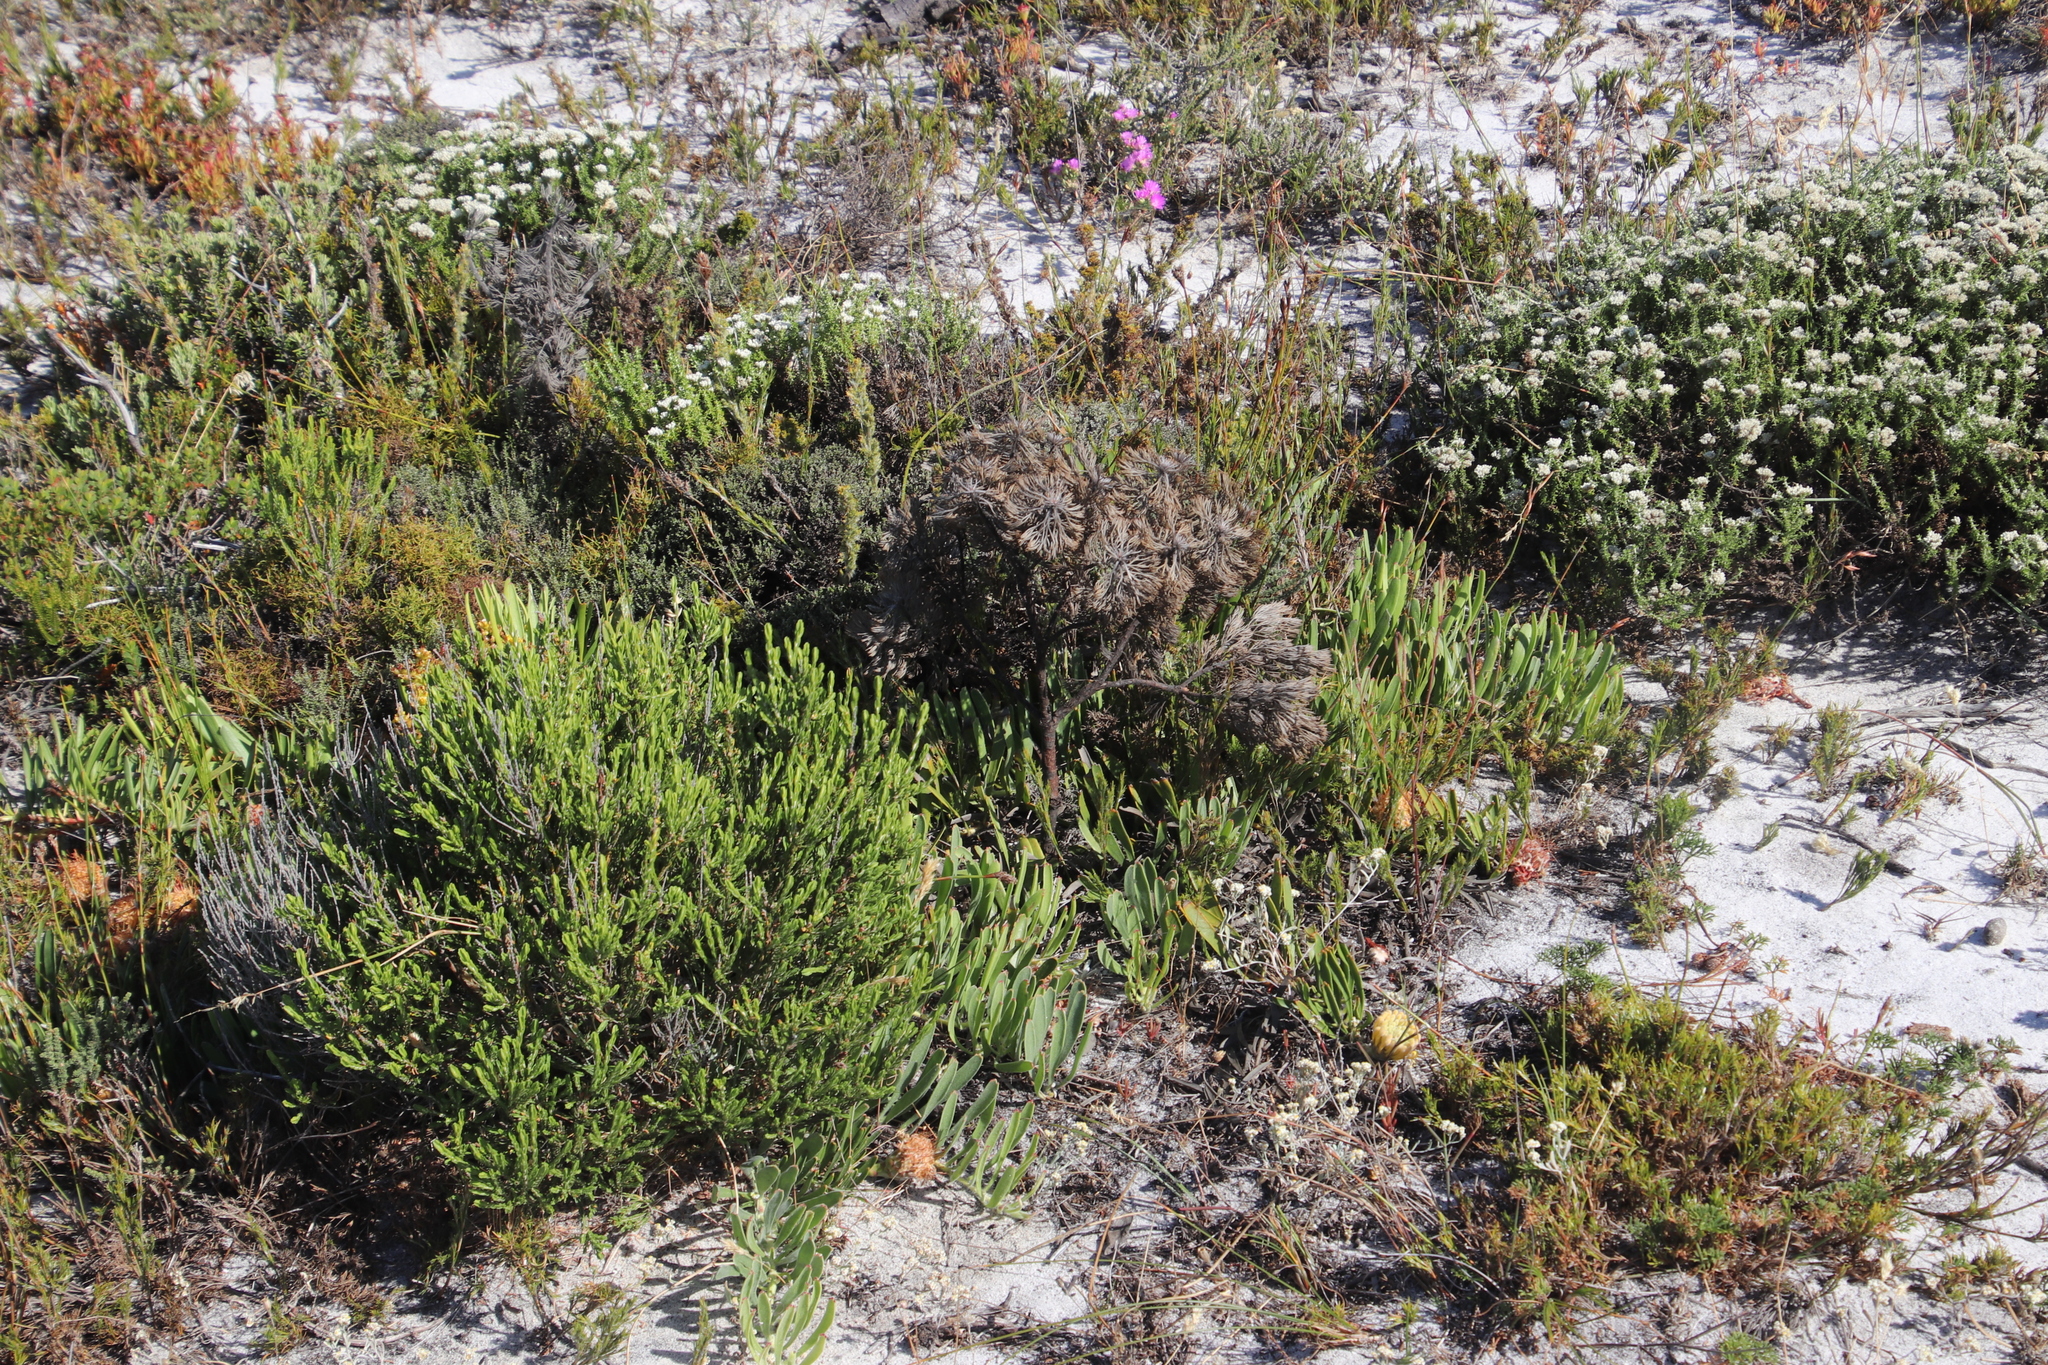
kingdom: Plantae
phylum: Tracheophyta
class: Magnoliopsida
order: Proteales
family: Proteaceae
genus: Leucospermum
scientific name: Leucospermum hypophyllocarpodendron
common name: Snakestem pincushion
